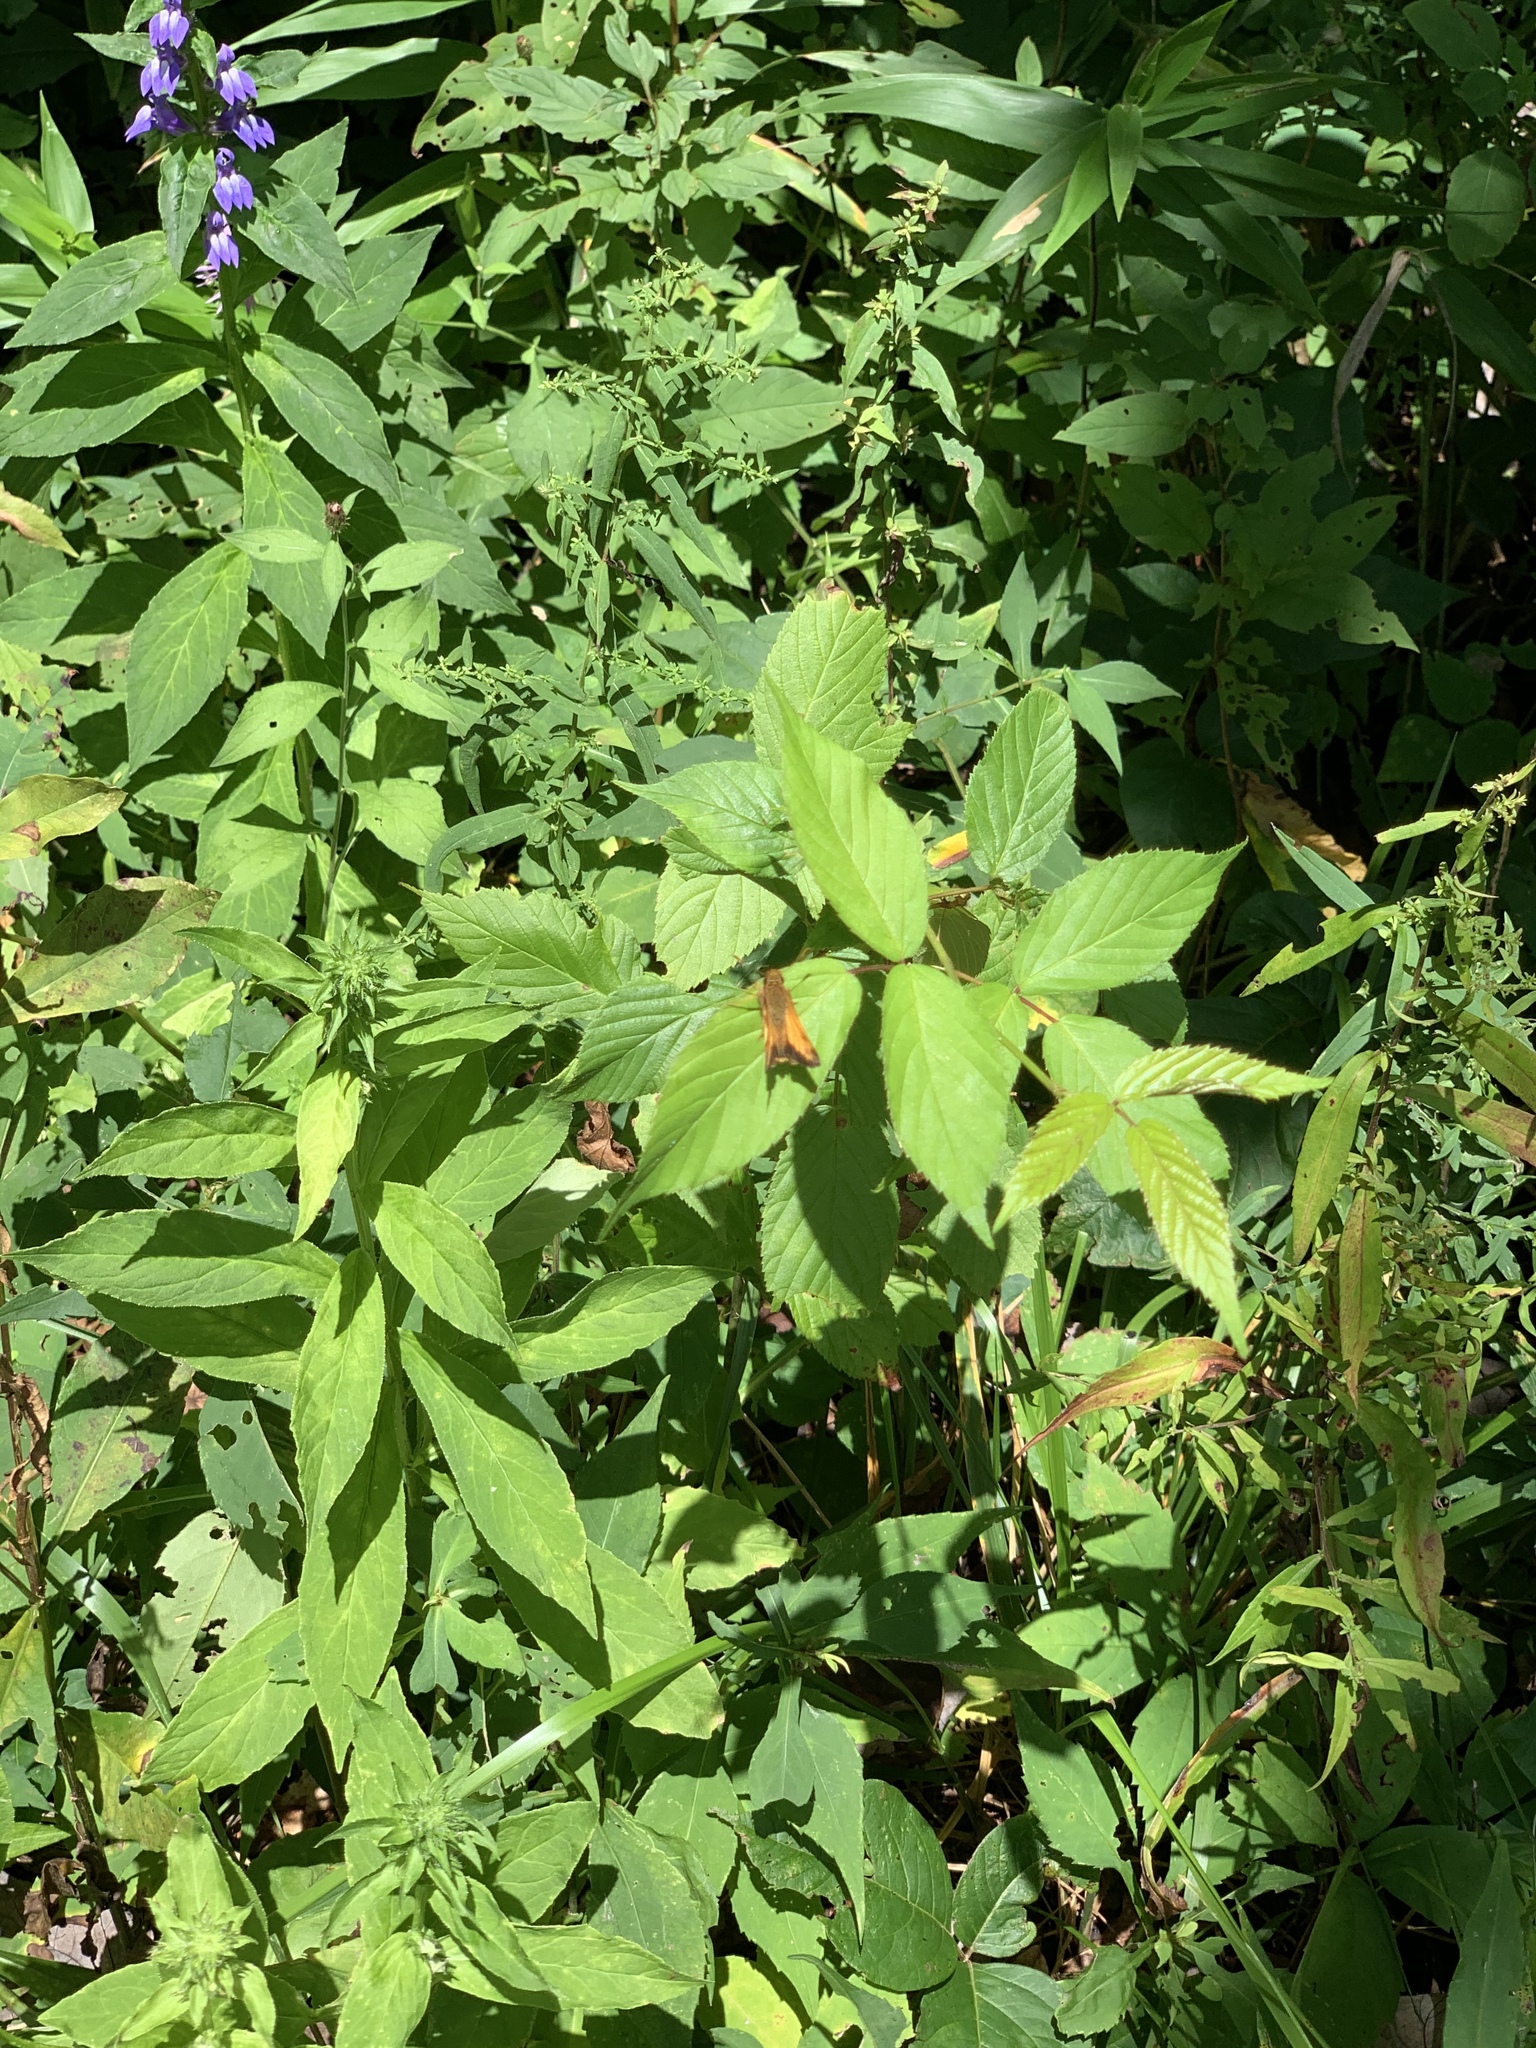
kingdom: Animalia
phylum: Arthropoda
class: Insecta
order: Lepidoptera
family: Hesperiidae
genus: Lon
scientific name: Lon zabulon
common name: Zabulon skipper
